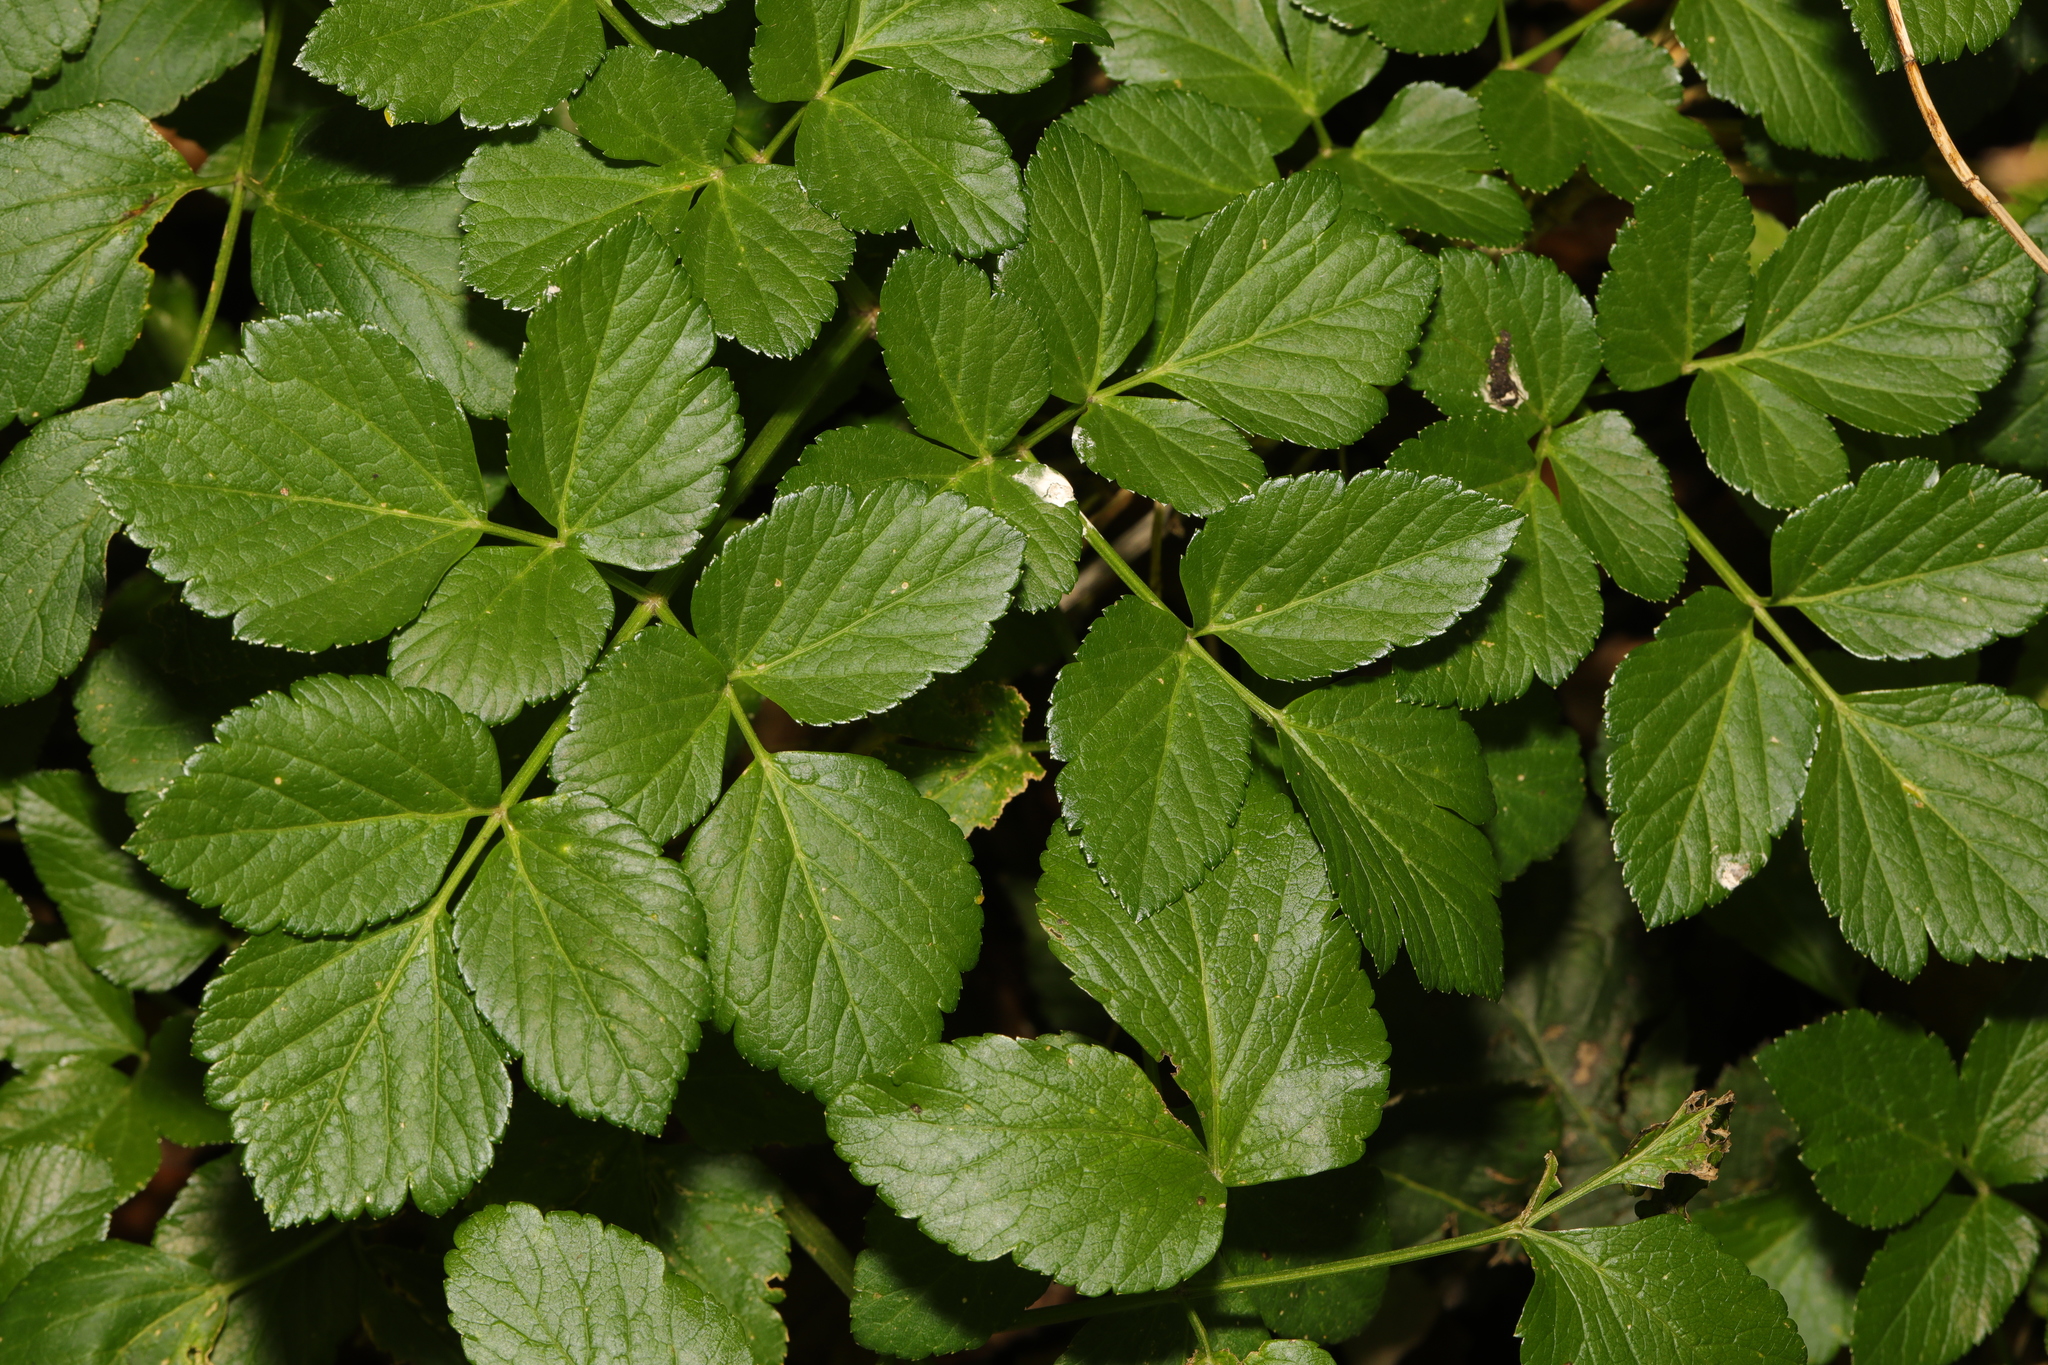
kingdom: Plantae
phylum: Tracheophyta
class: Magnoliopsida
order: Apiales
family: Apiaceae
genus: Smyrnium
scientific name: Smyrnium olusatrum
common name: Alexanders
